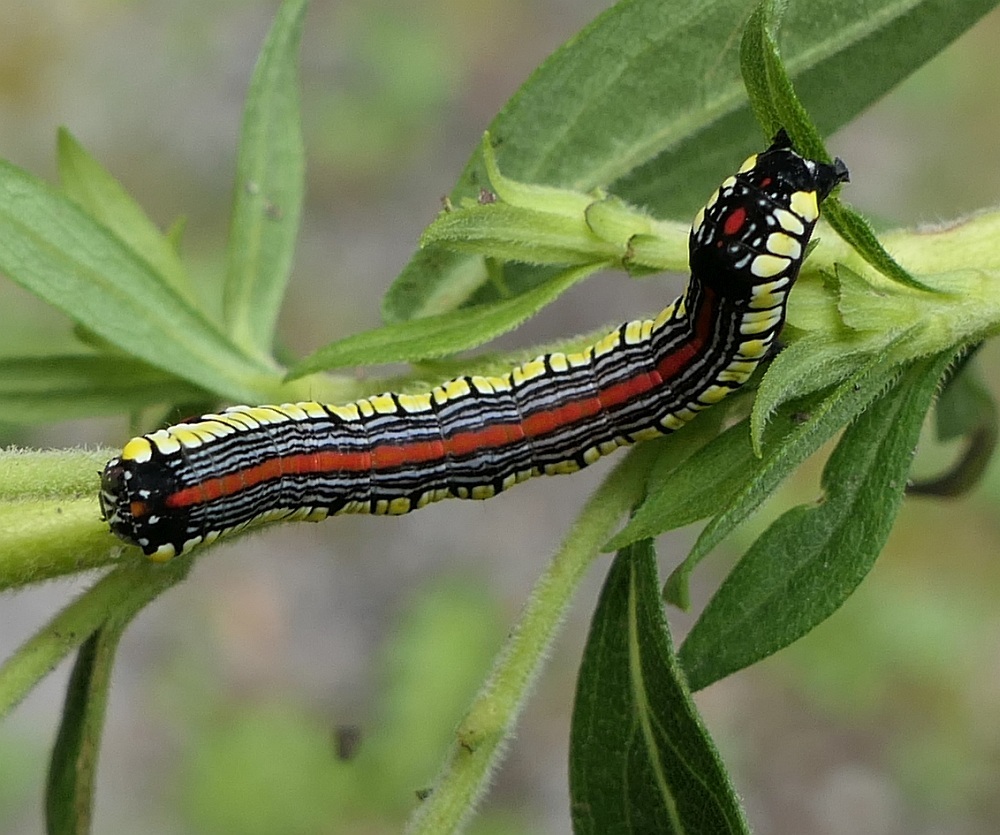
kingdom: Animalia
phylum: Arthropoda
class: Insecta
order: Lepidoptera
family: Noctuidae
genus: Cucullia
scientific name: Cucullia convexipennis
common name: Brown-hooded owlet
